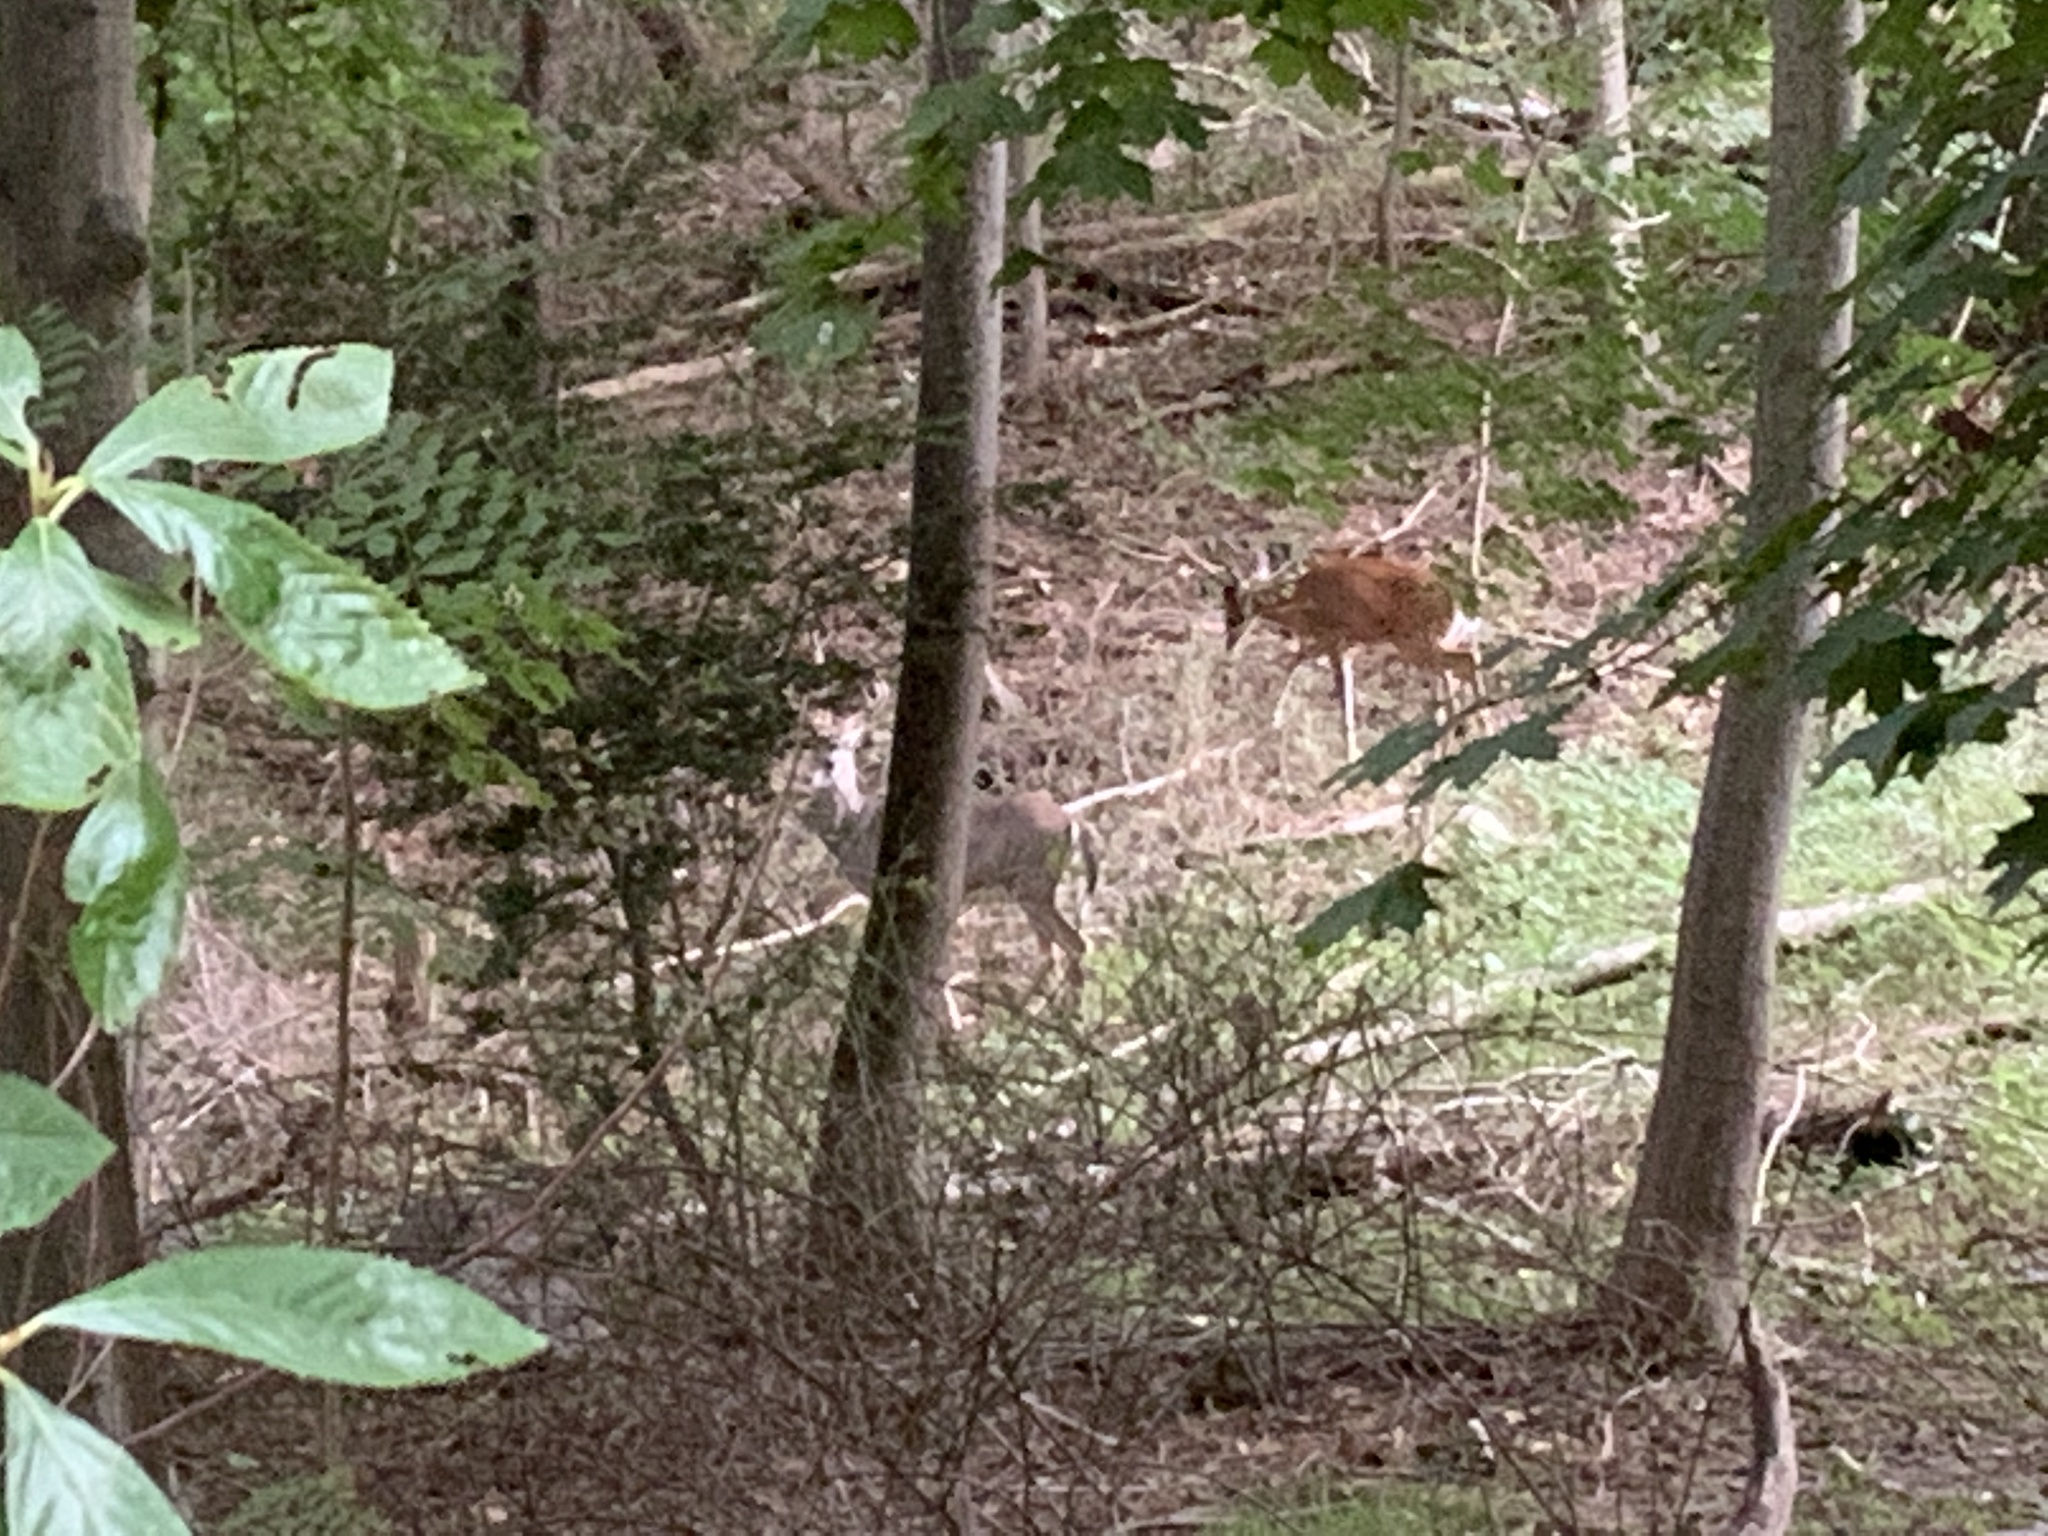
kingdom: Animalia
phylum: Chordata
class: Mammalia
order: Artiodactyla
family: Cervidae
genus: Odocoileus
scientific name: Odocoileus virginianus
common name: White-tailed deer
